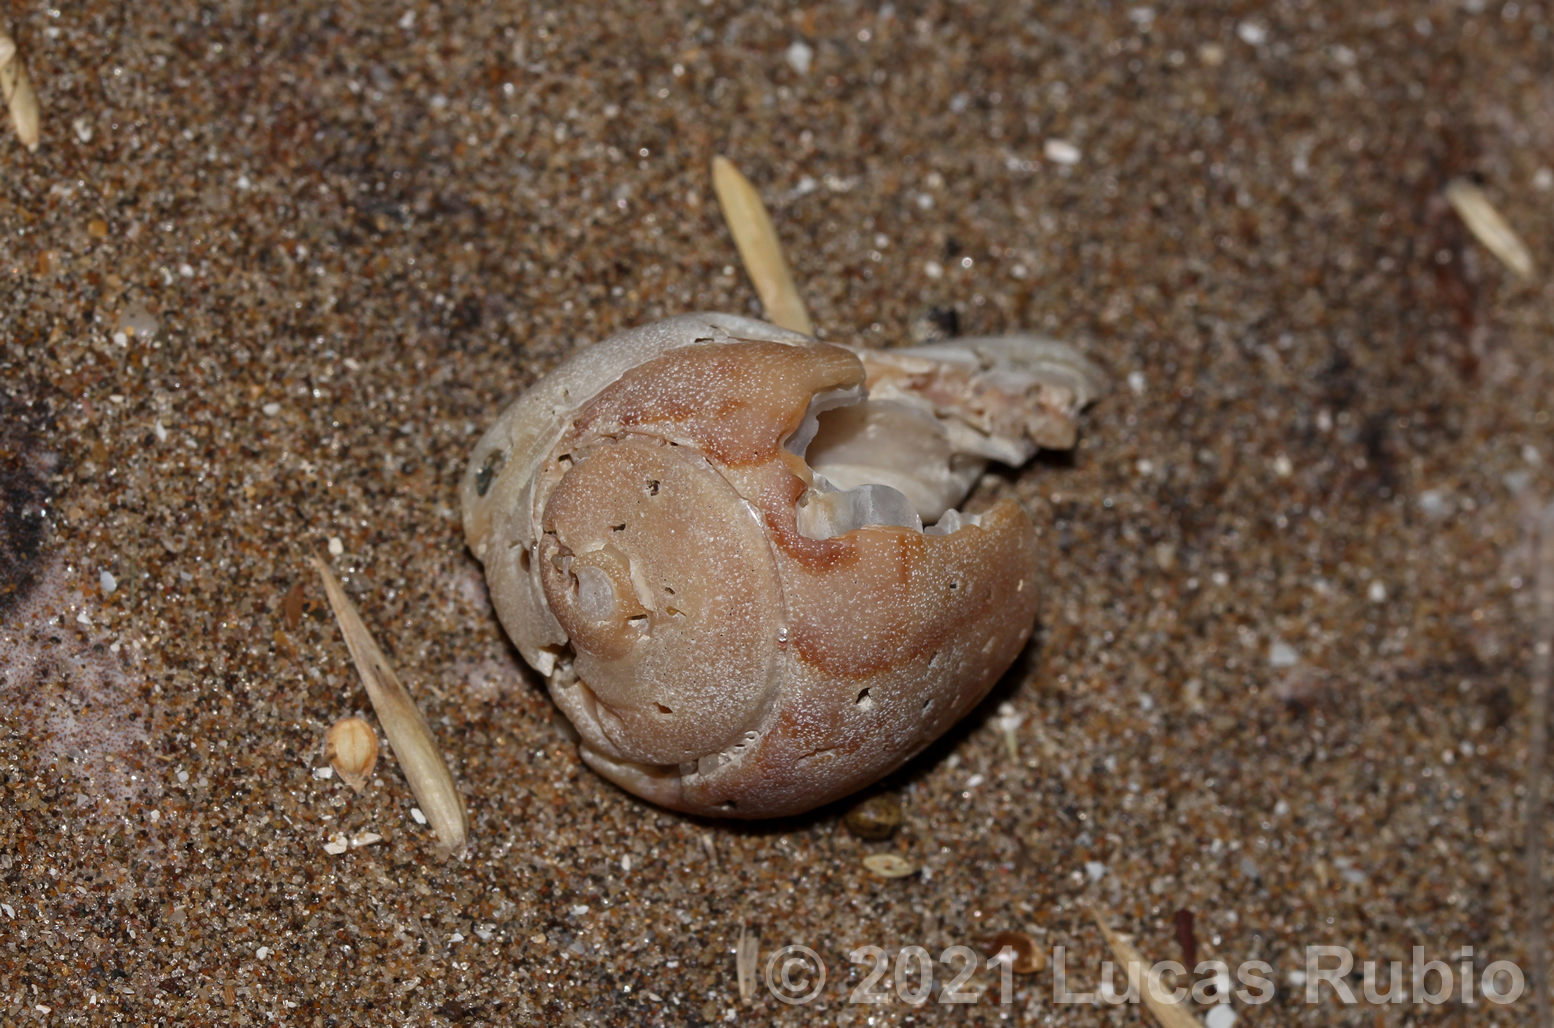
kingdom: Animalia
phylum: Mollusca
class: Gastropoda
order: Neogastropoda
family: Olividae
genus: Olivancillaria
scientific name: Olivancillaria urceus
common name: Bear ancilla
